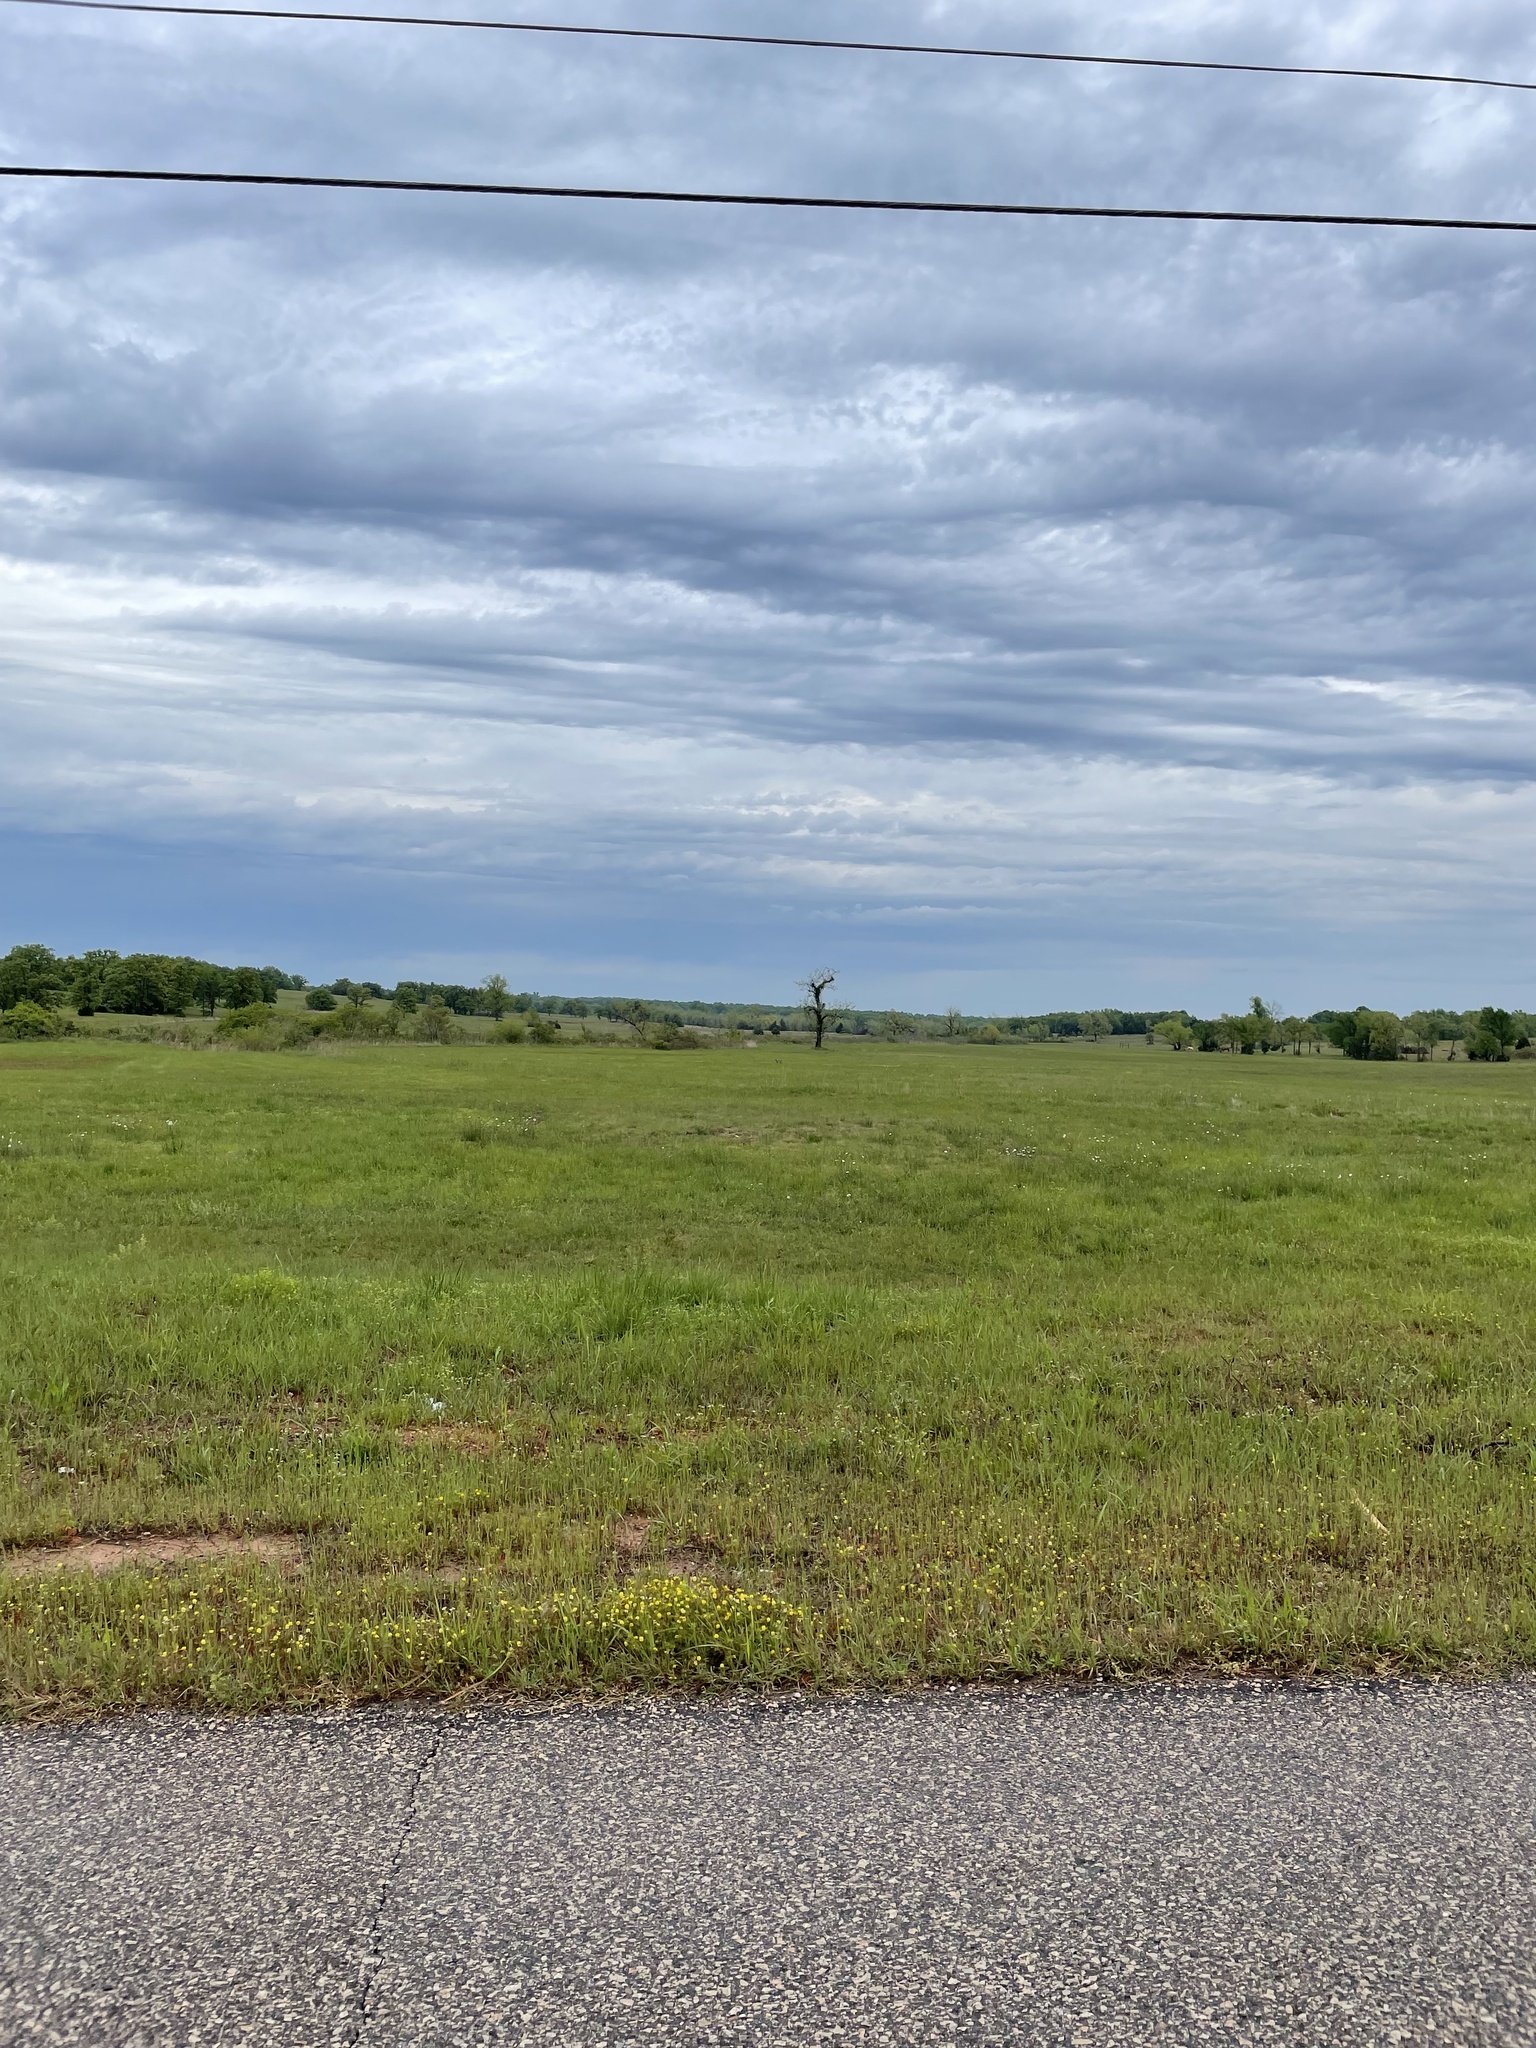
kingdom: Animalia
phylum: Chordata
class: Mammalia
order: Carnivora
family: Canidae
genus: Canis
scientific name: Canis latrans
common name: Coyote
